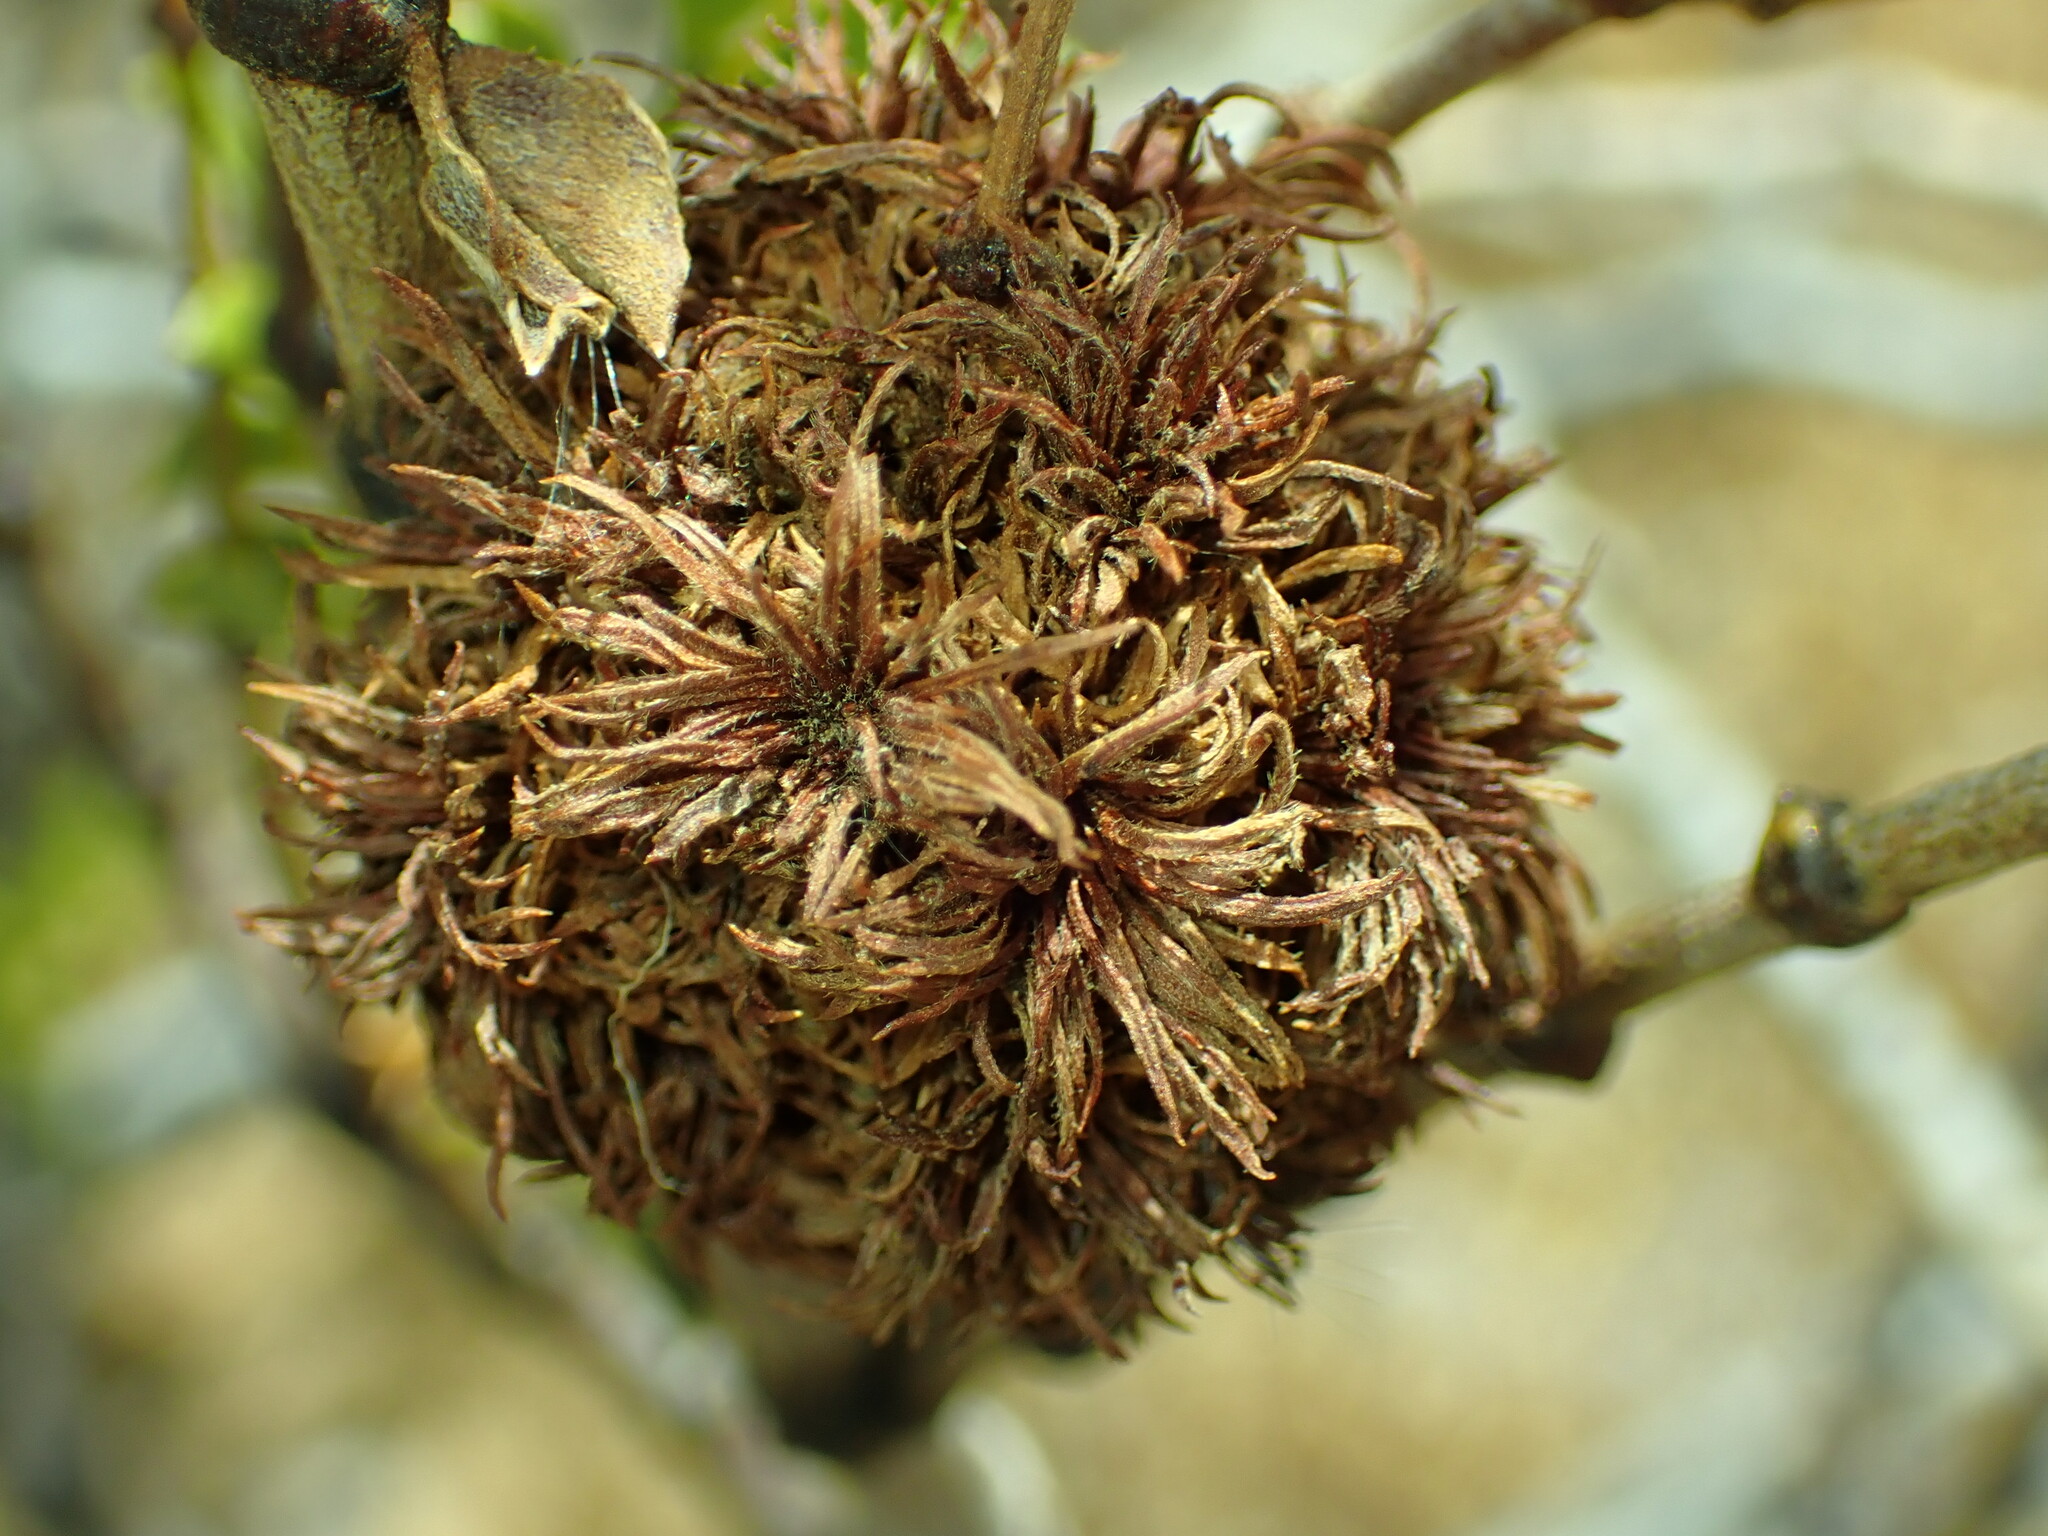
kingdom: Animalia
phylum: Arthropoda
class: Insecta
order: Diptera
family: Cecidomyiidae
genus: Asphondylia
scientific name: Asphondylia auripila
